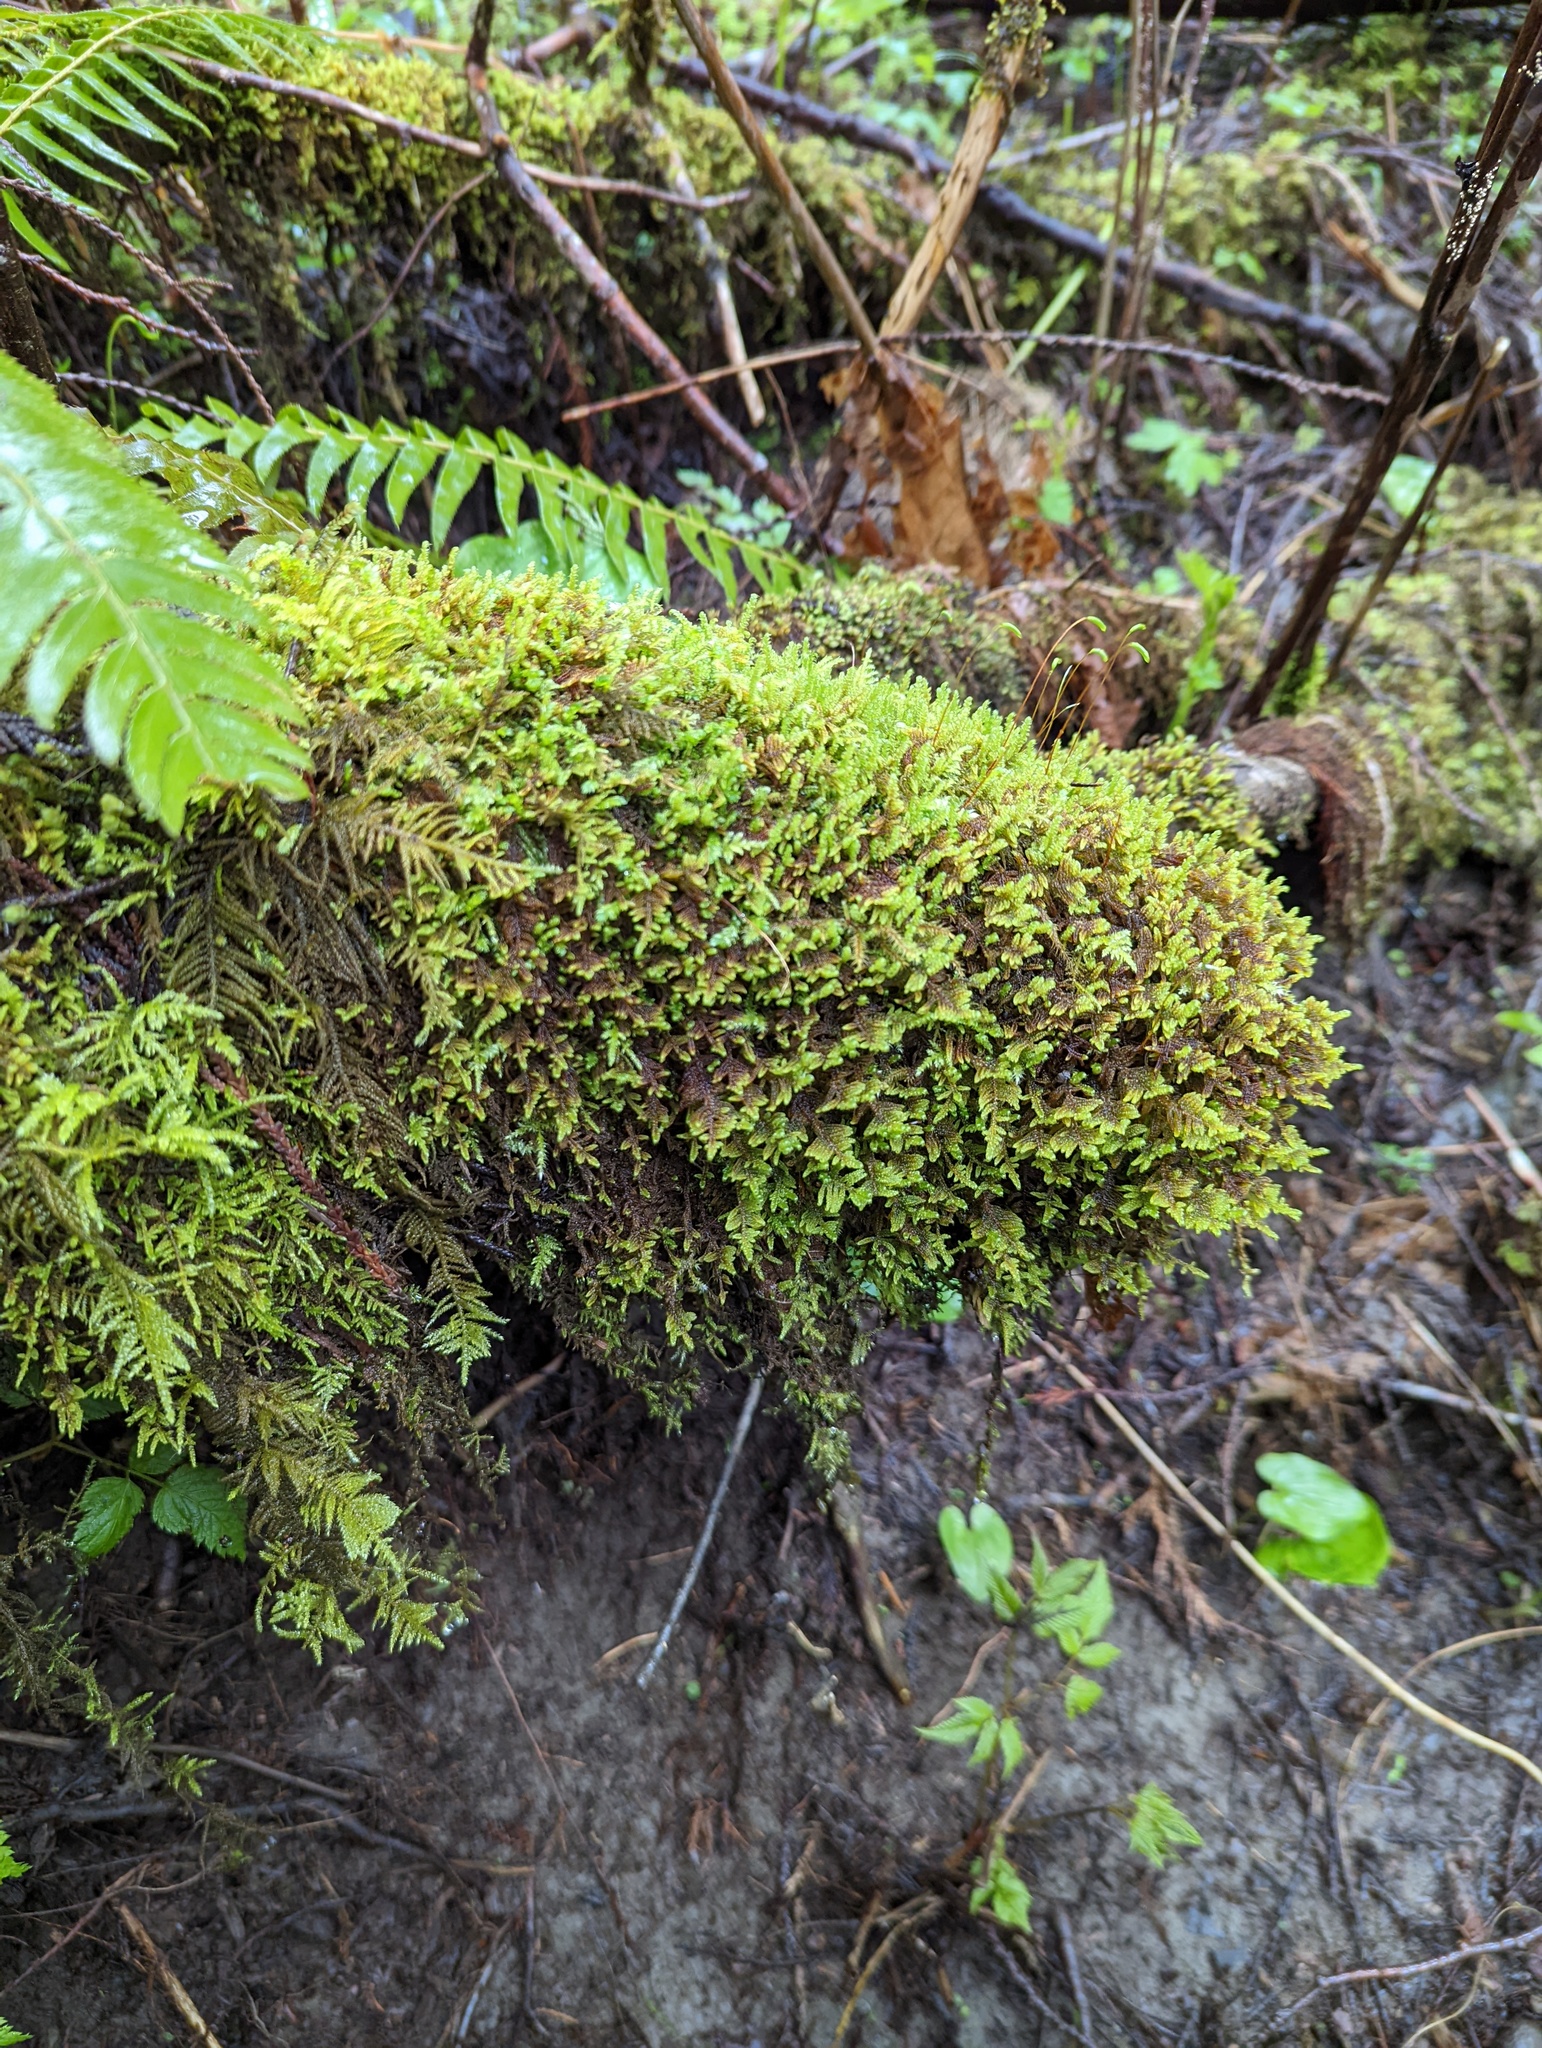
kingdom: Plantae
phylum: Bryophyta
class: Bryopsida
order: Hypnales
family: Pylaisiaceae
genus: Calliergonellopsis
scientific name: Calliergonellopsis dieckii
